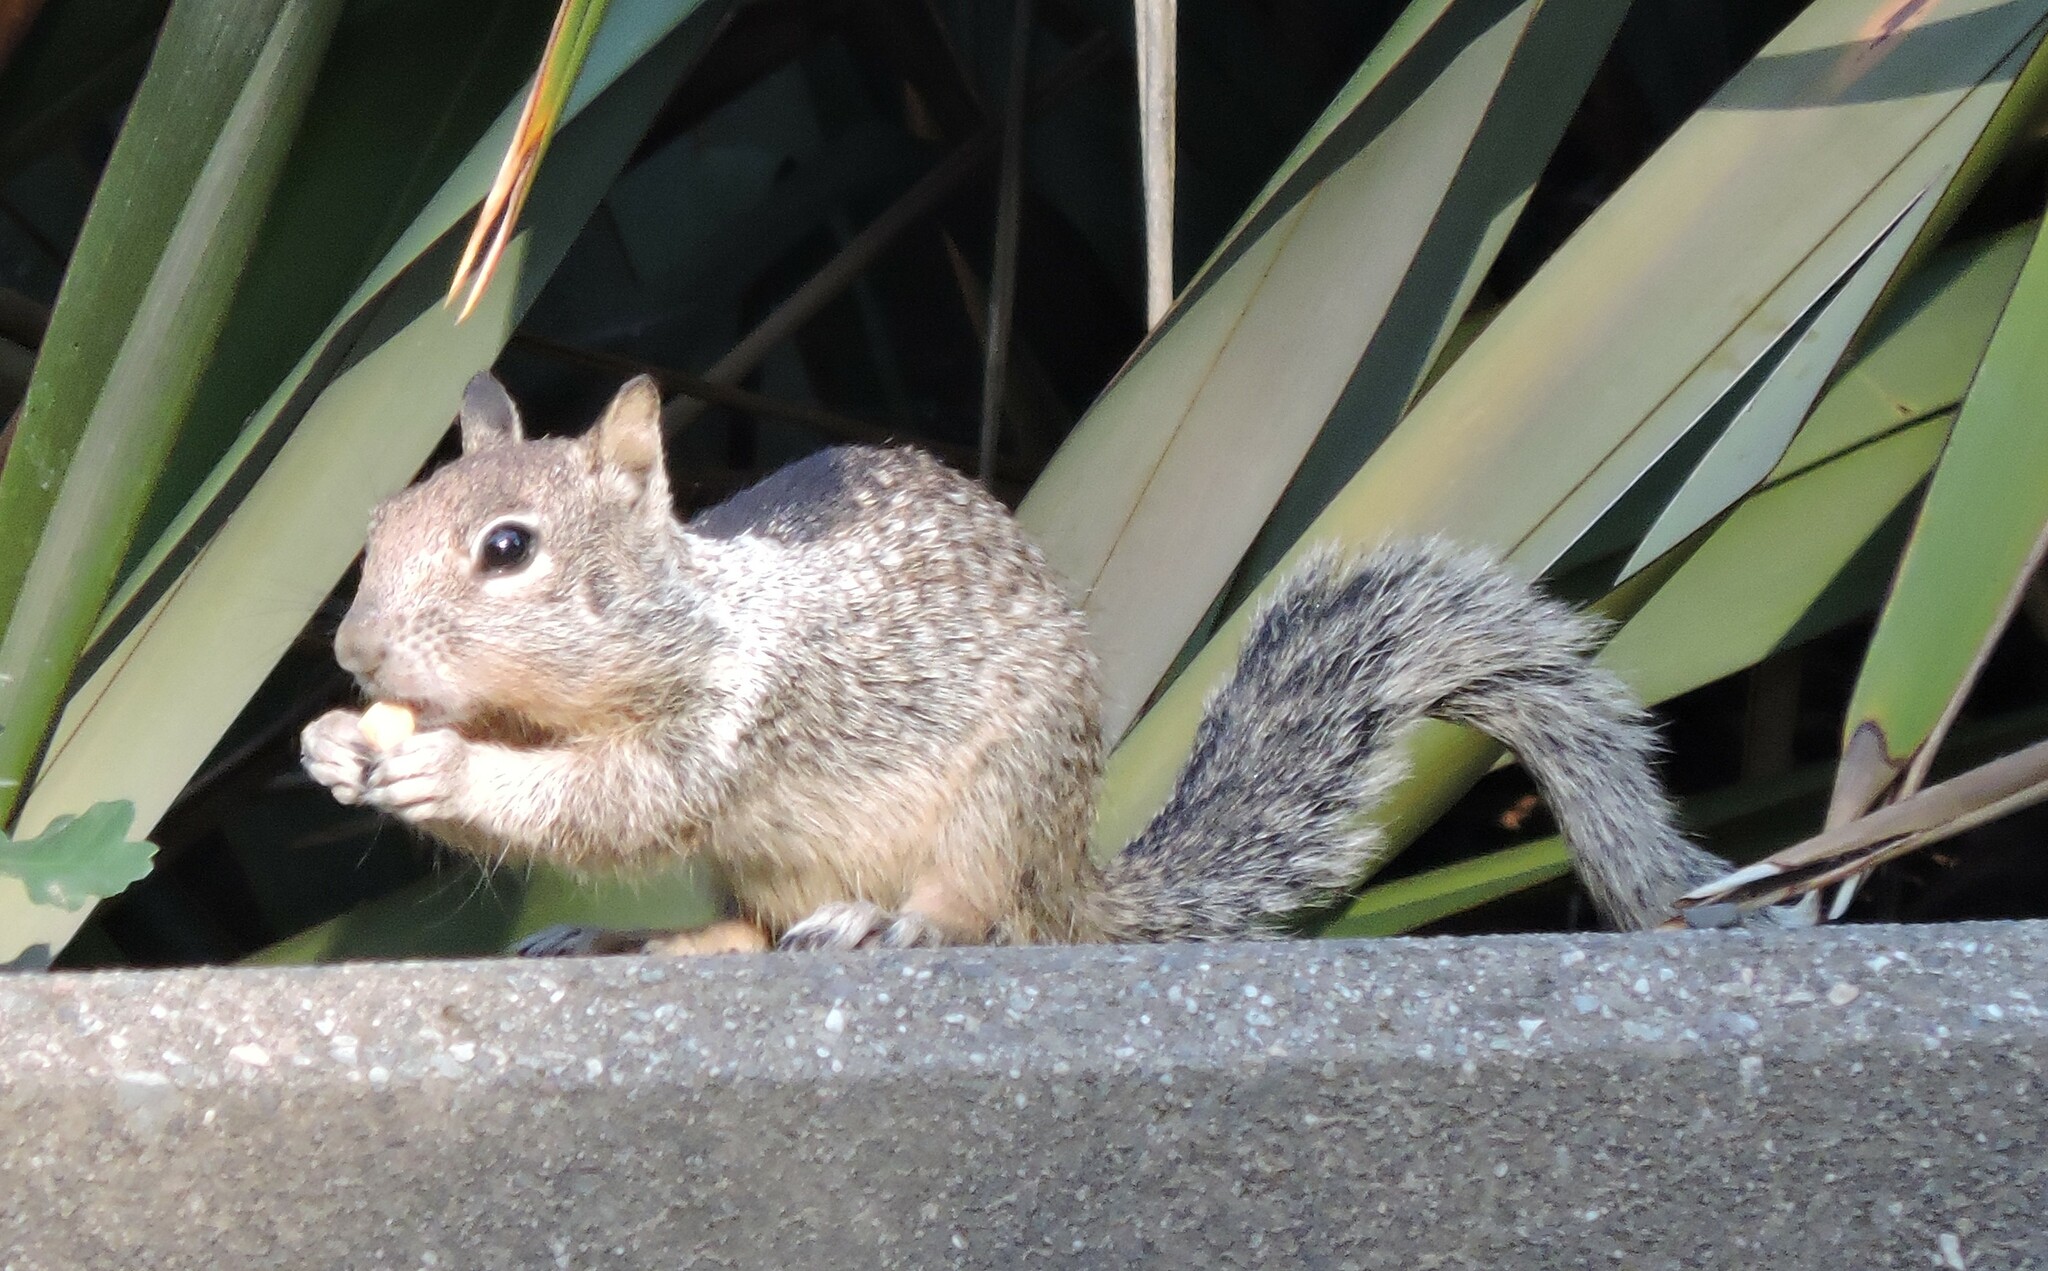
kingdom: Animalia
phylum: Chordata
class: Mammalia
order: Rodentia
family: Sciuridae
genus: Otospermophilus
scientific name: Otospermophilus beecheyi
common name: California ground squirrel
